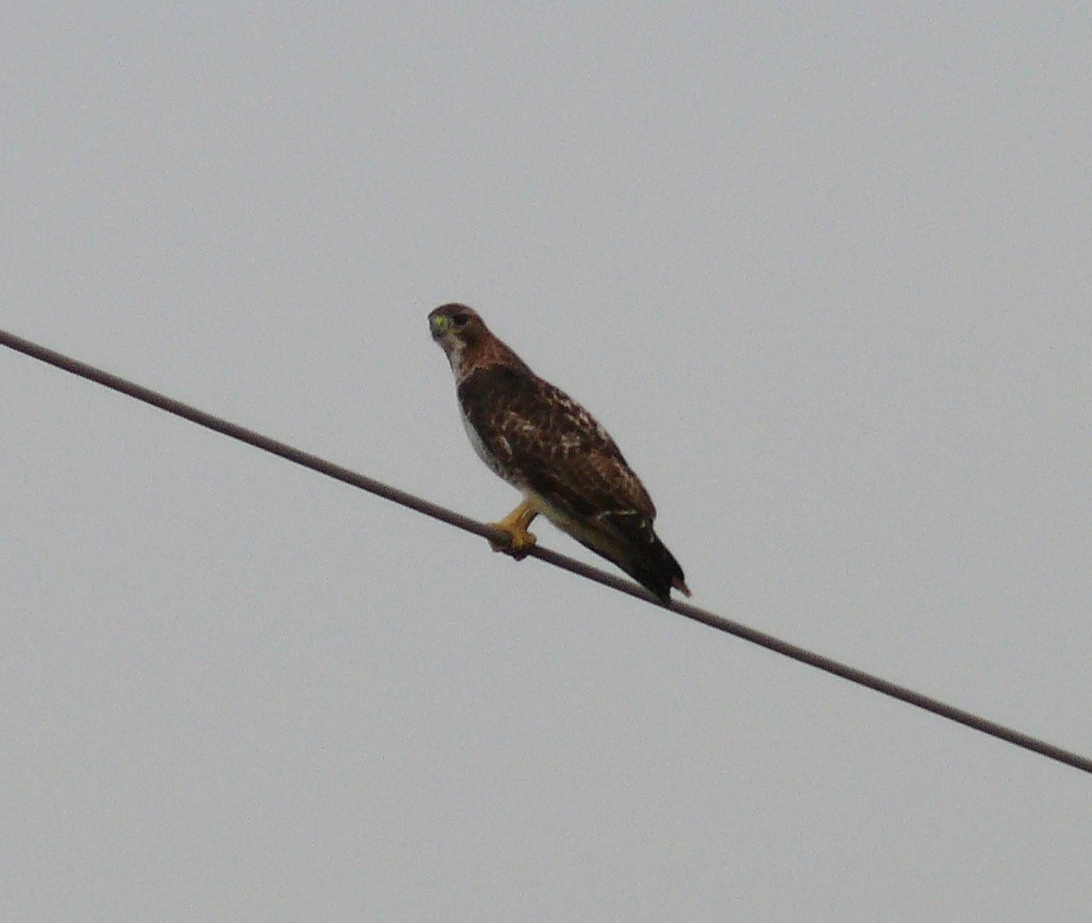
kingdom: Animalia
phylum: Chordata
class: Aves
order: Accipitriformes
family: Accipitridae
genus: Buteo
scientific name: Buteo jamaicensis
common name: Red-tailed hawk
